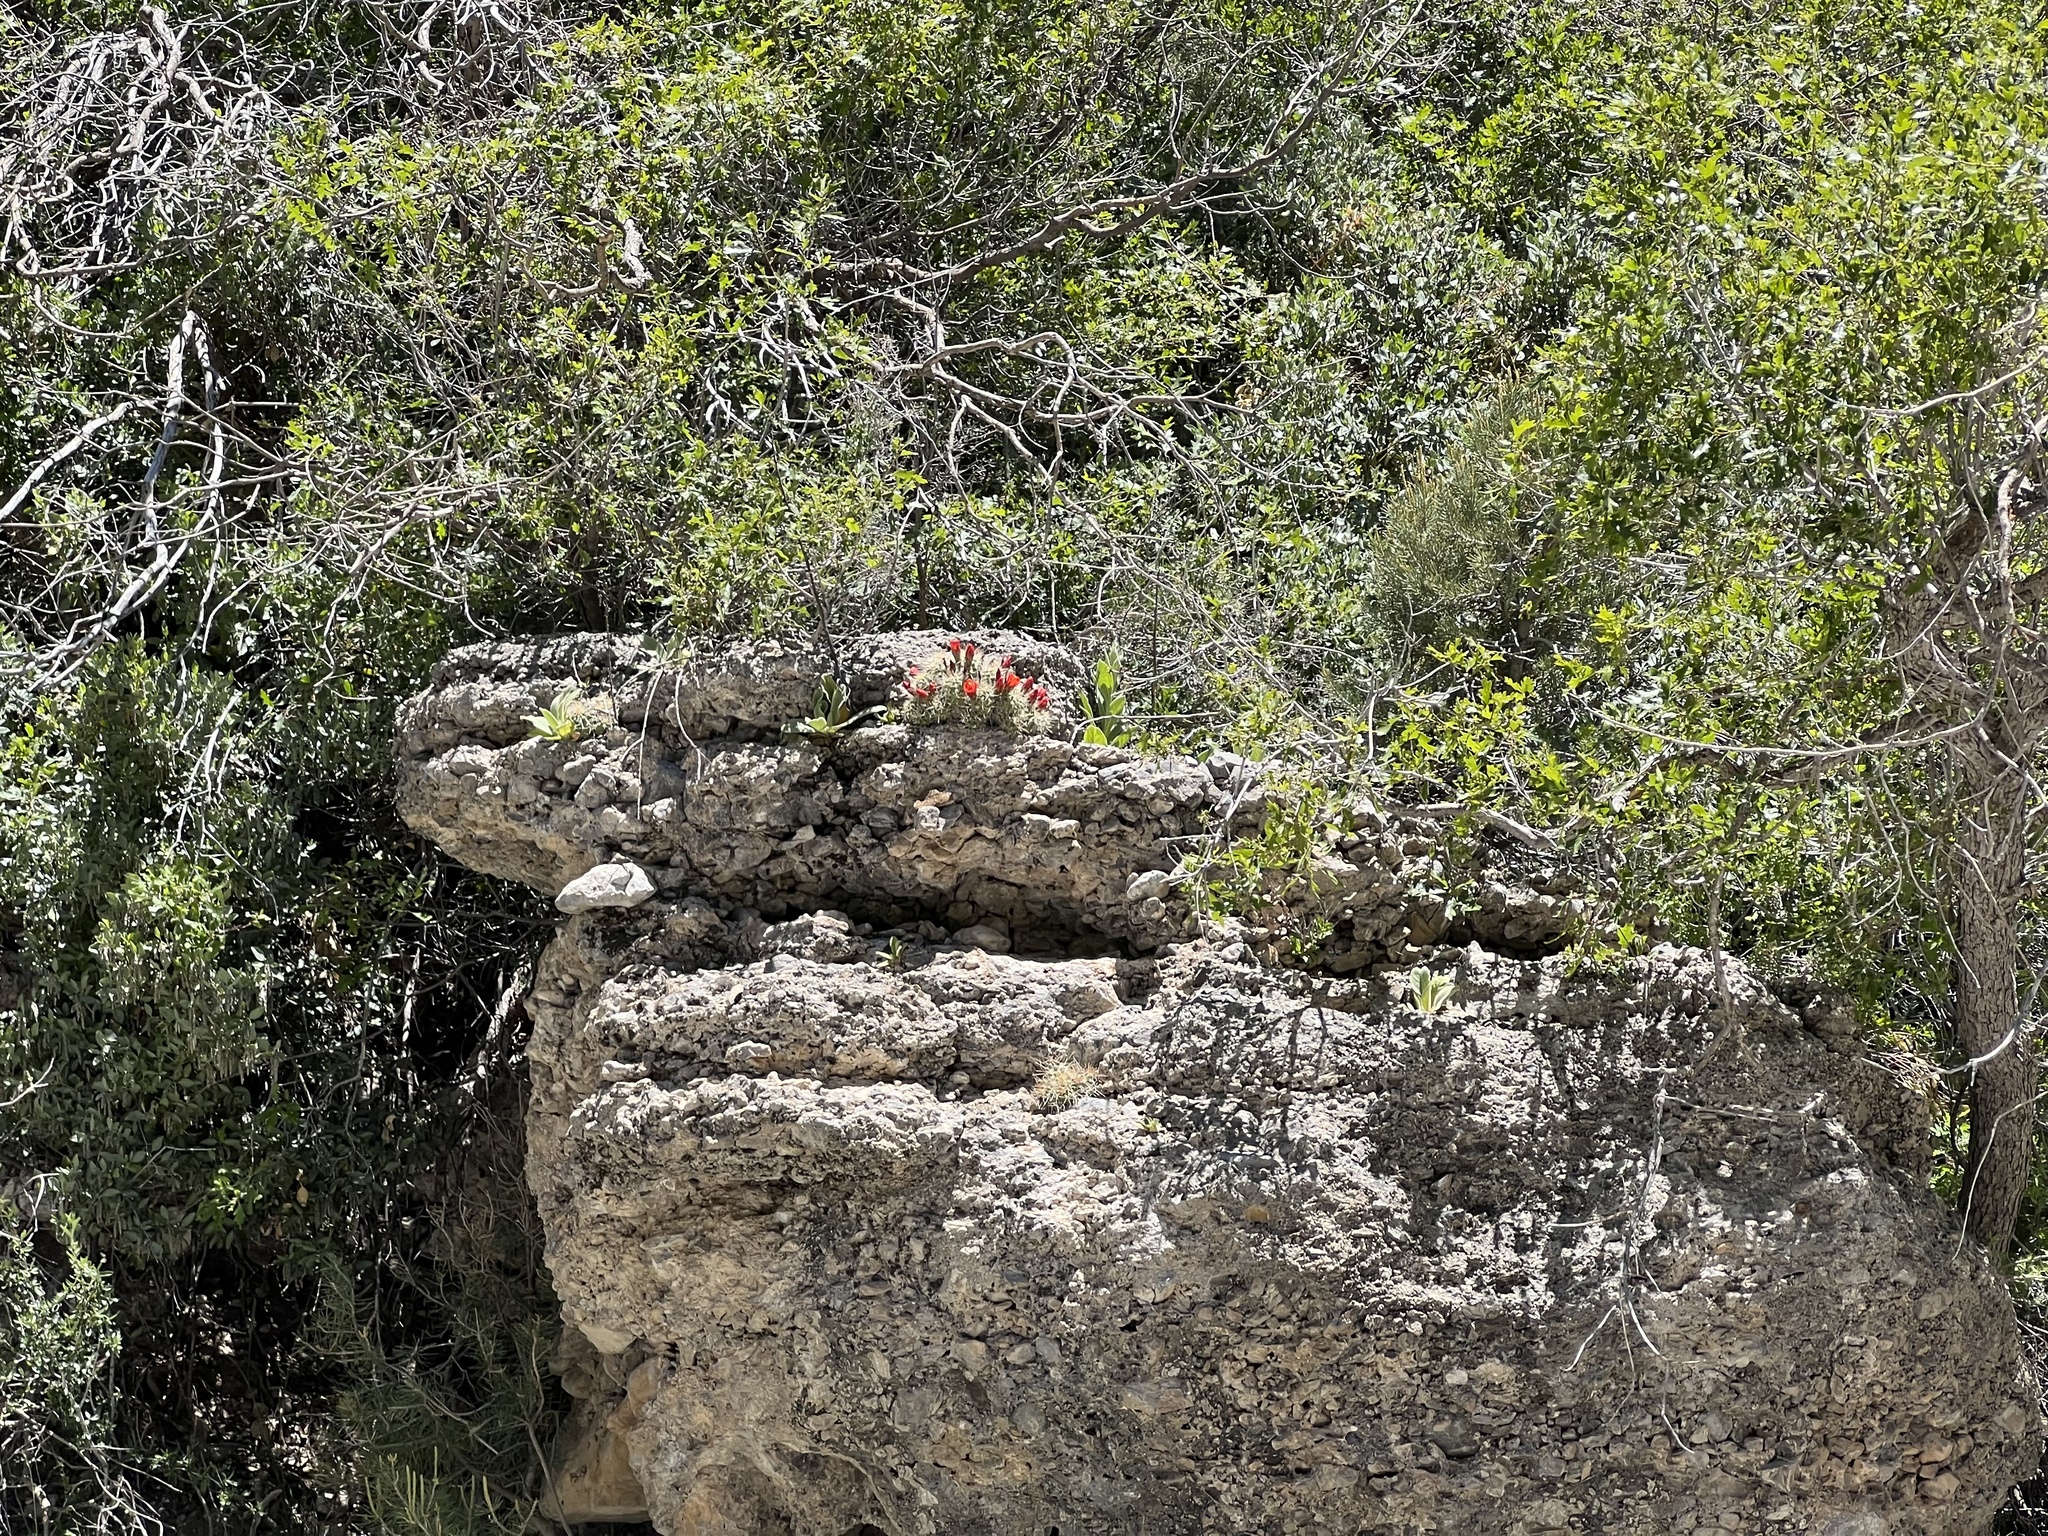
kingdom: Plantae
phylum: Tracheophyta
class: Magnoliopsida
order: Caryophyllales
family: Cactaceae
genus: Echinocereus
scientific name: Echinocereus triglochidiatus
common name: Claretcup hedgehog
